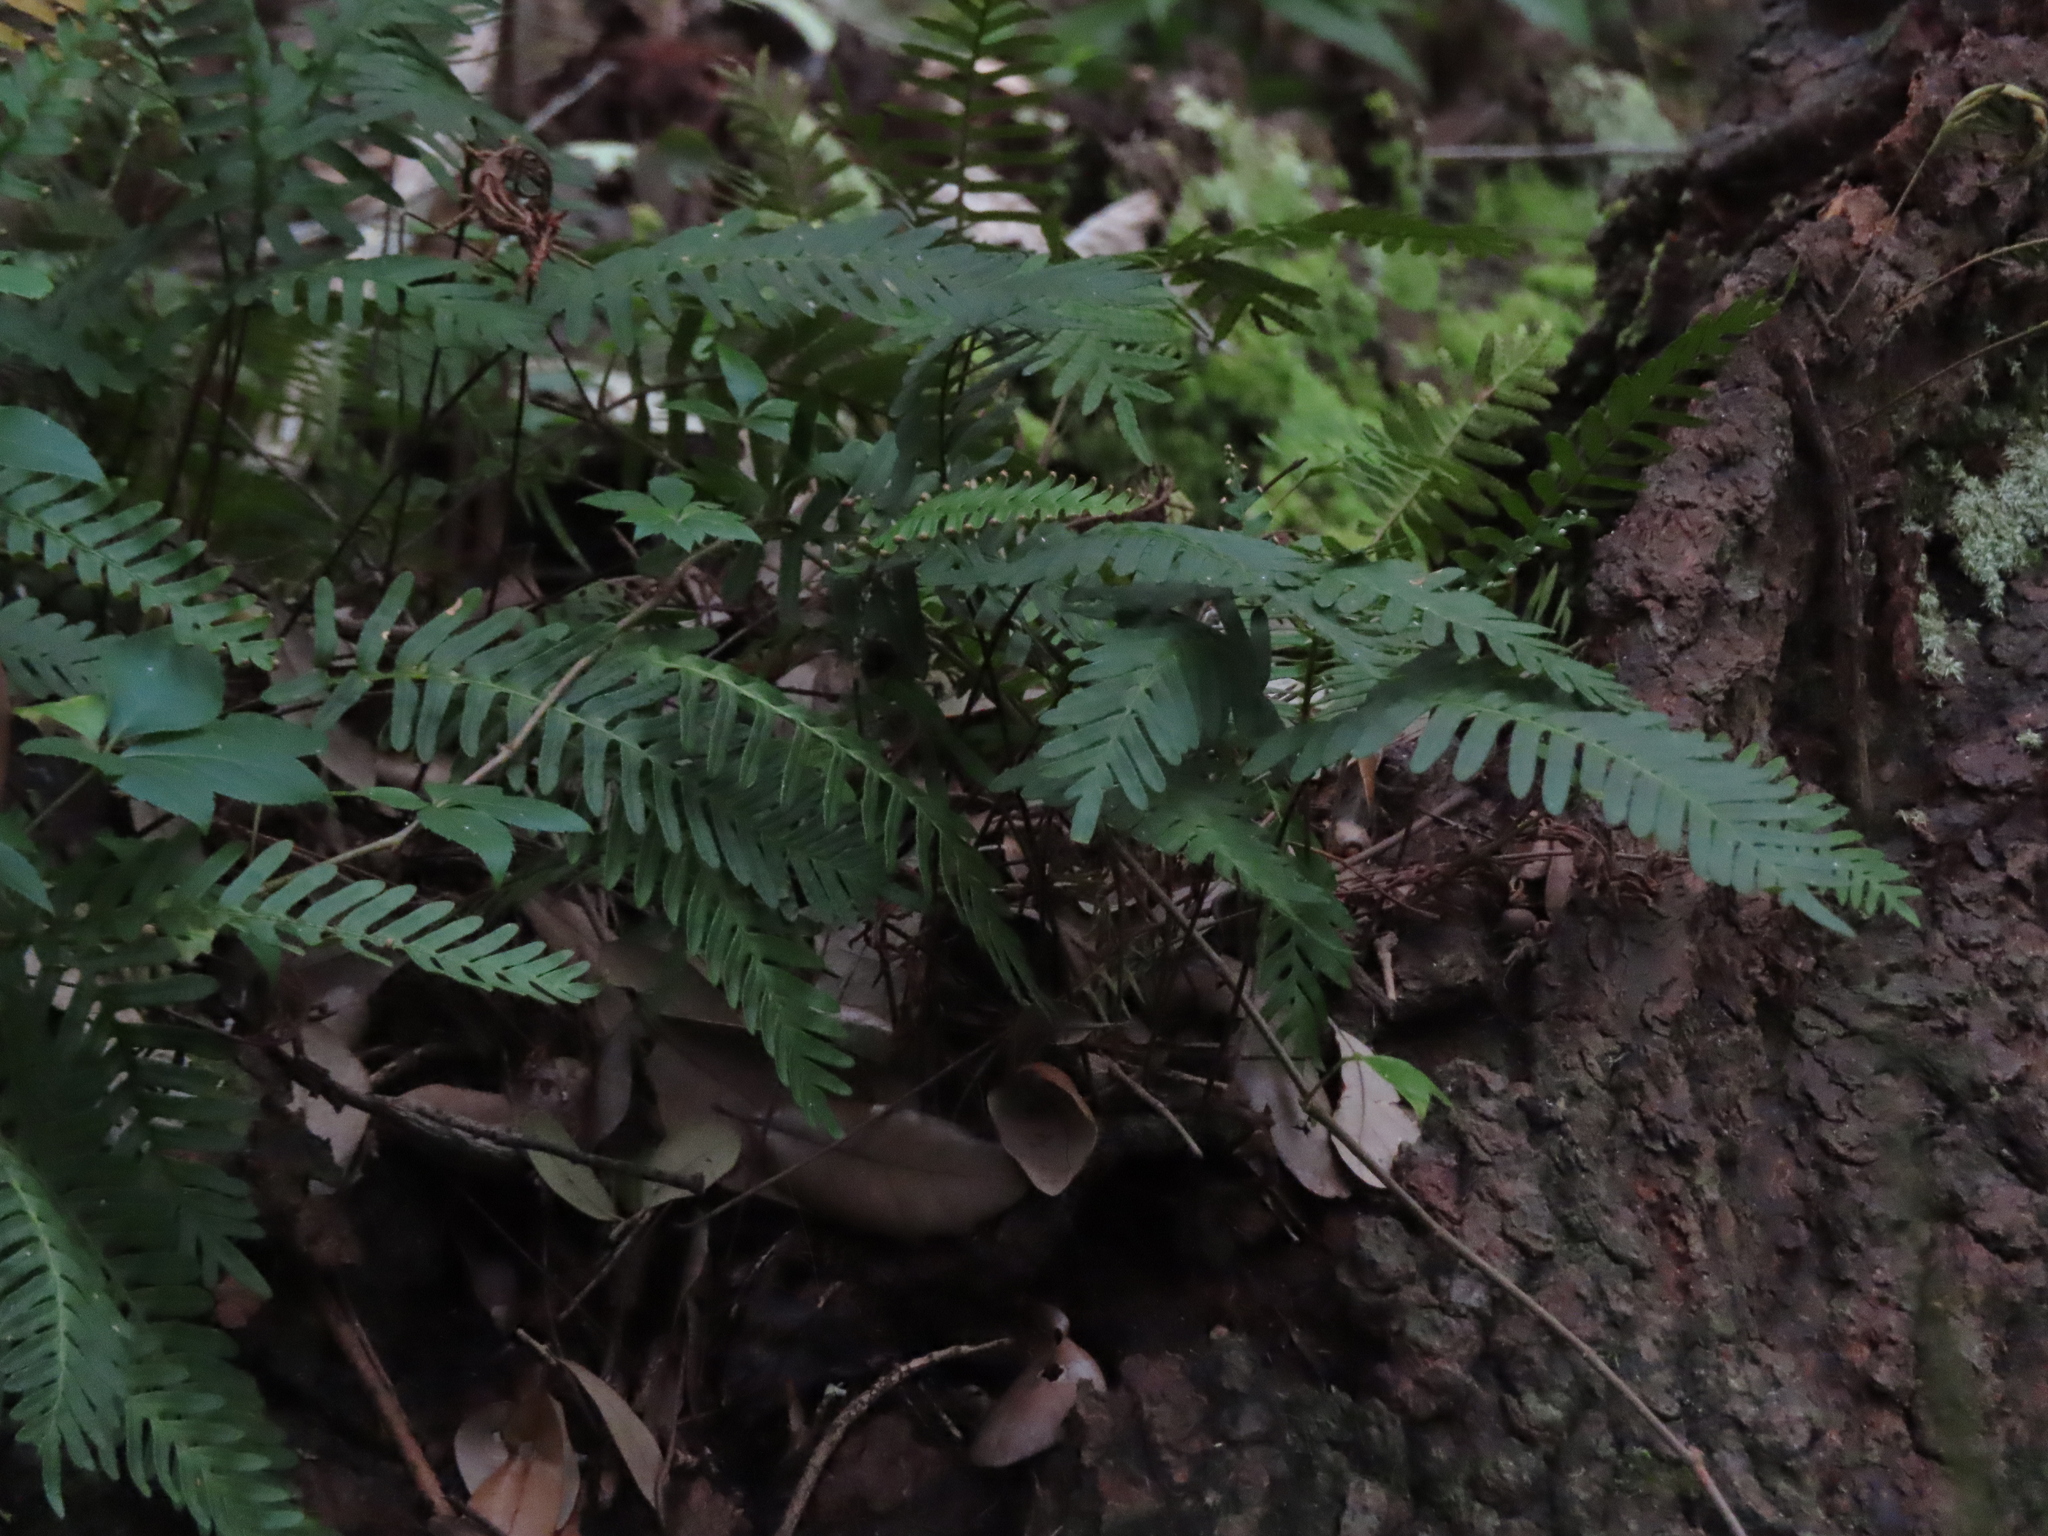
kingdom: Plantae
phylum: Tracheophyta
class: Polypodiopsida
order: Polypodiales
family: Polypodiaceae
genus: Pleopeltis
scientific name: Pleopeltis michauxiana
